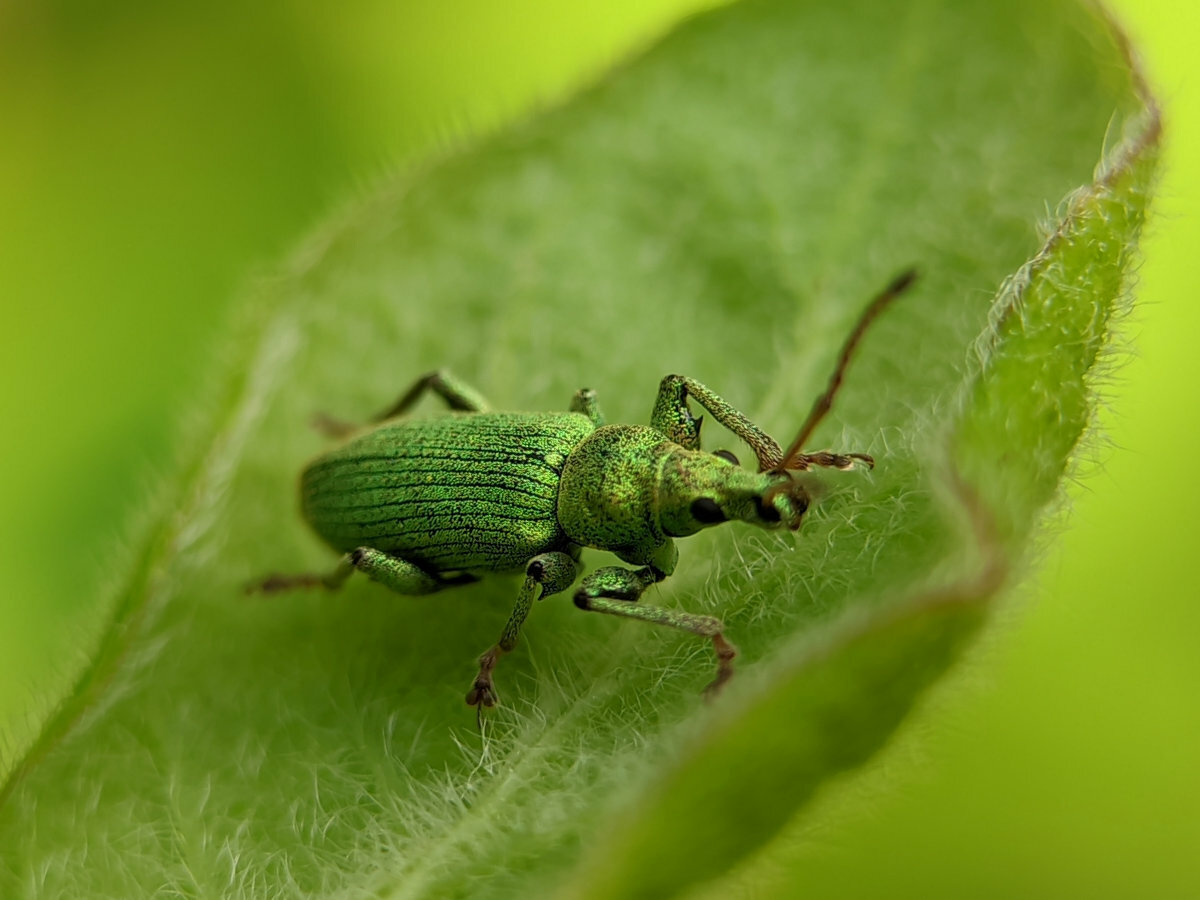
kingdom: Animalia
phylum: Arthropoda
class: Insecta
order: Coleoptera
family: Curculionidae
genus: Phyllobius
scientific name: Phyllobius maculicornis
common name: Green leaf weevil
